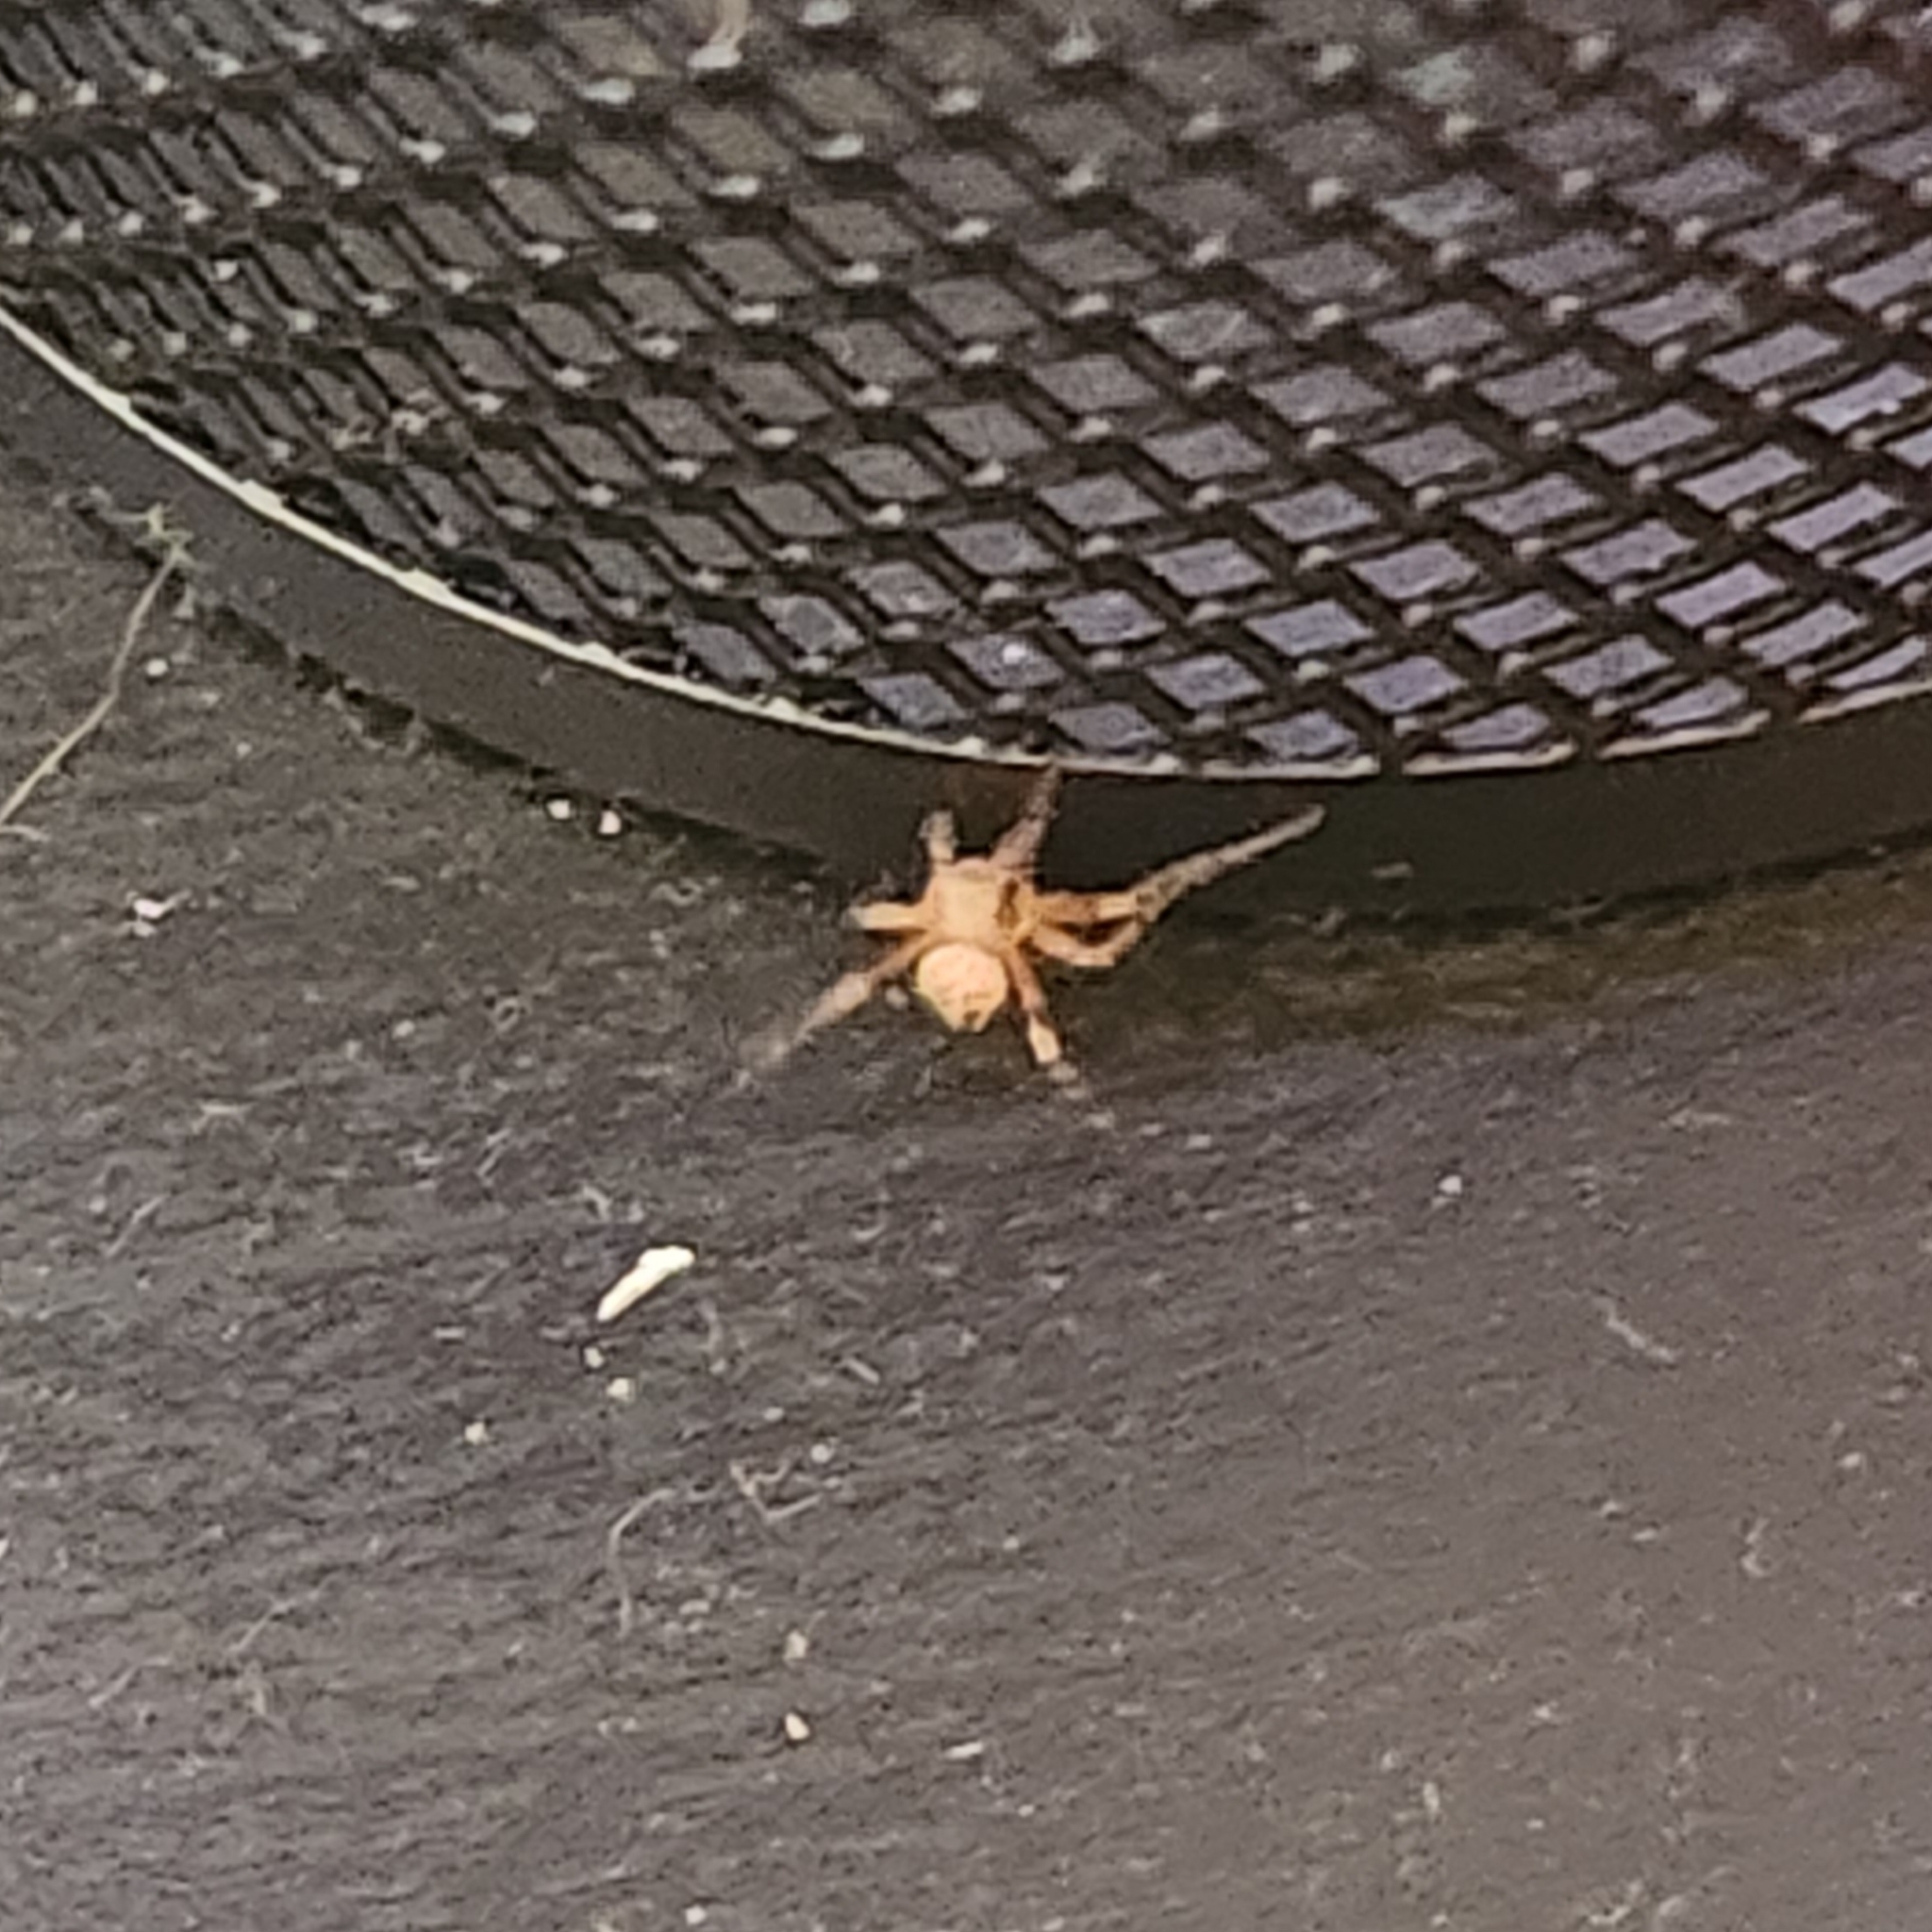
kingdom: Animalia
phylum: Arthropoda
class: Arachnida
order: Araneae
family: Araneidae
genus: Araneus
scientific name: Araneus
